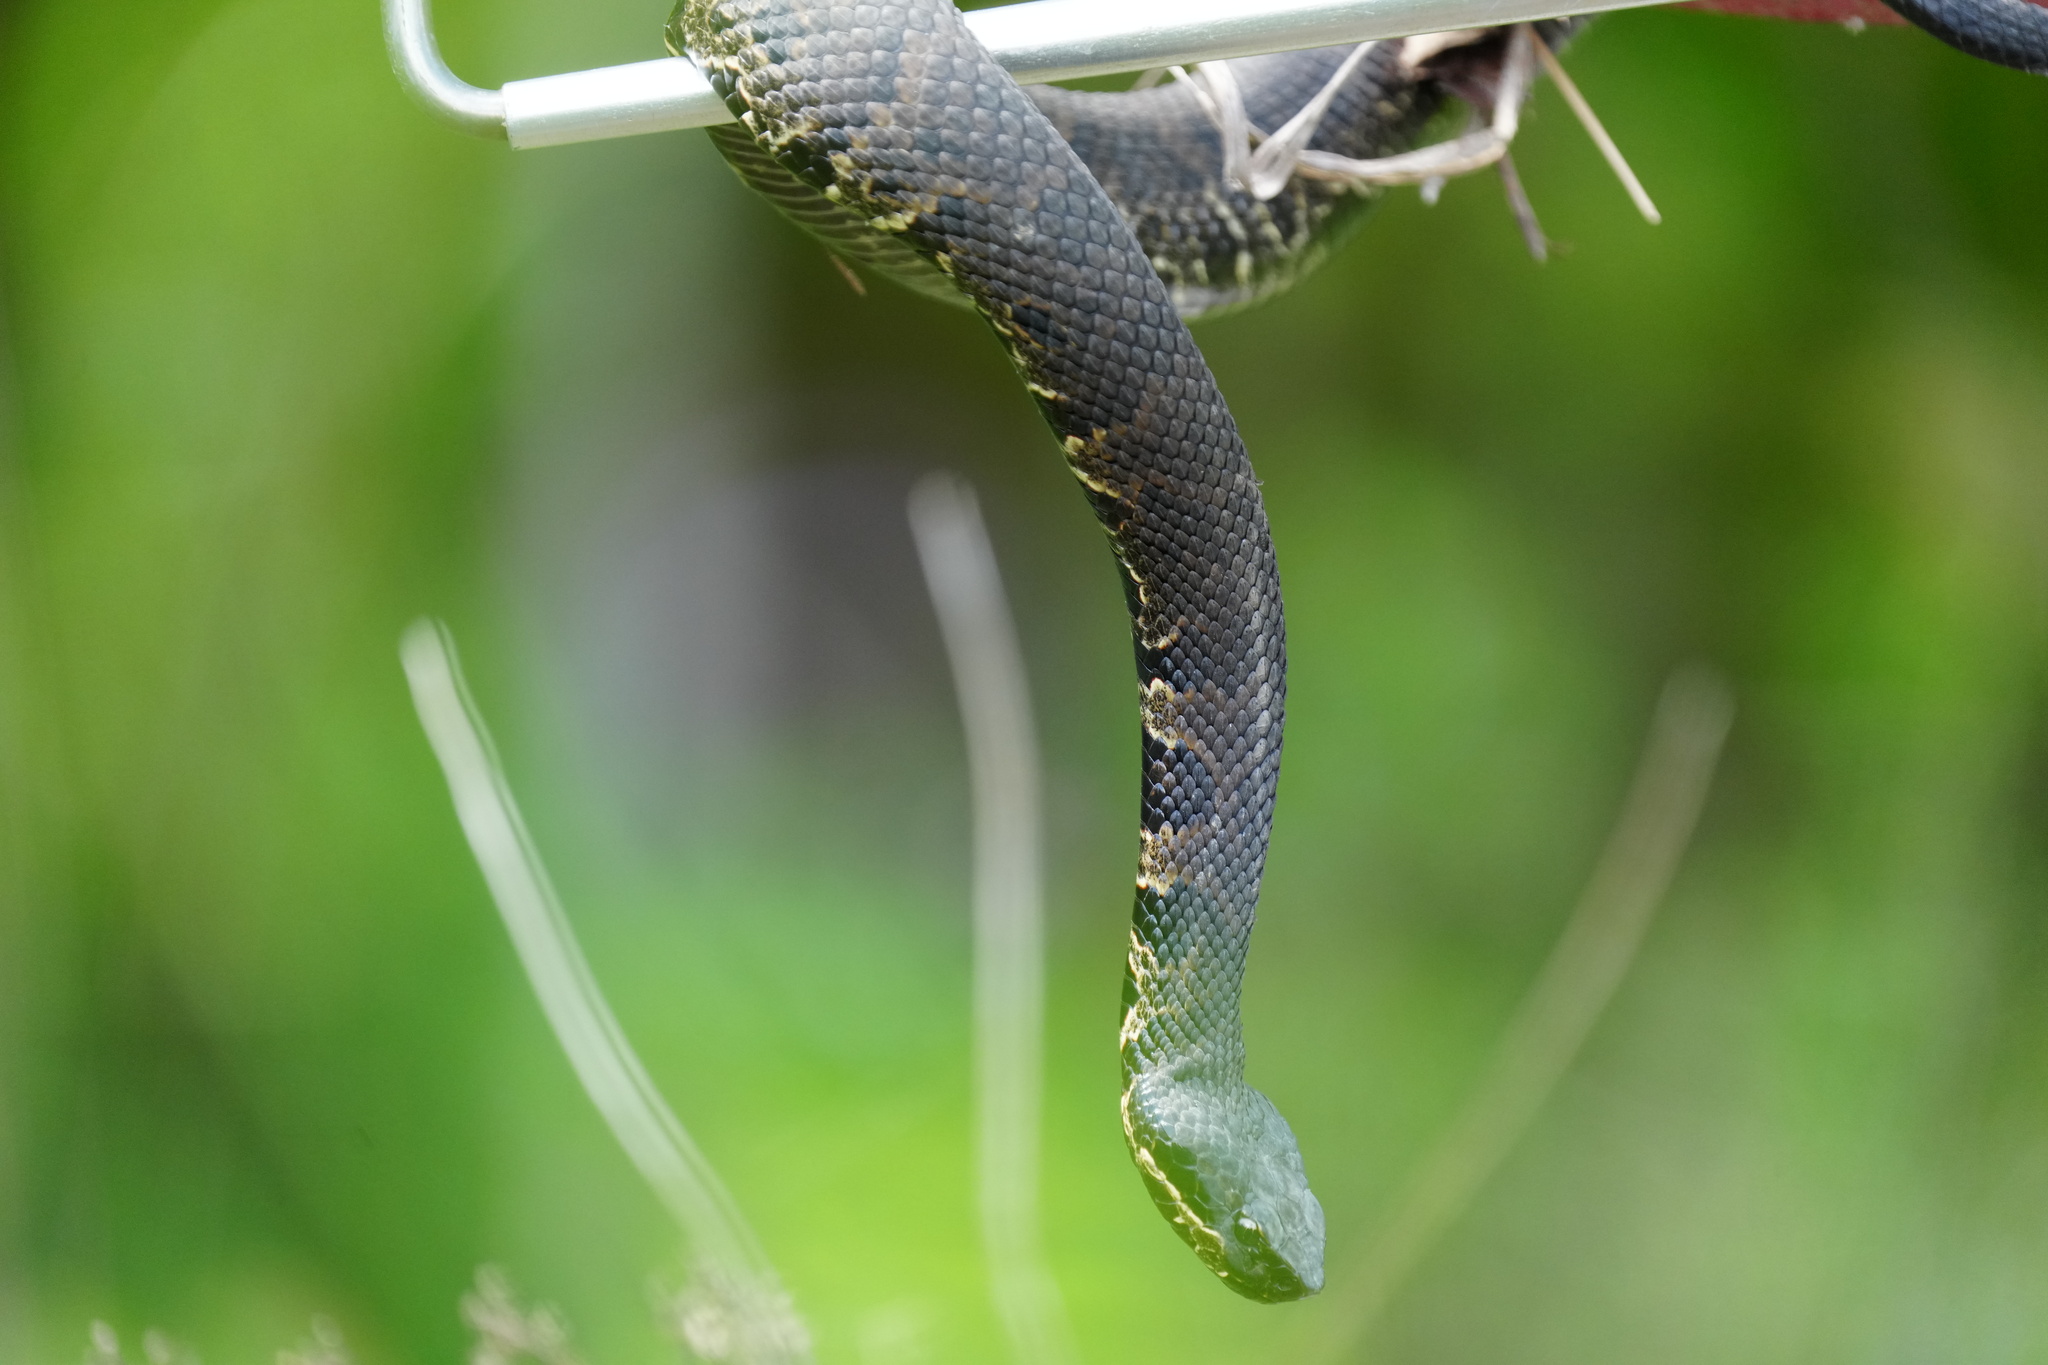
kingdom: Animalia
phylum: Chordata
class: Squamata
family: Viperidae
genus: Agkistrodon
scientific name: Agkistrodon piscivorus
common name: Cottonmouth
